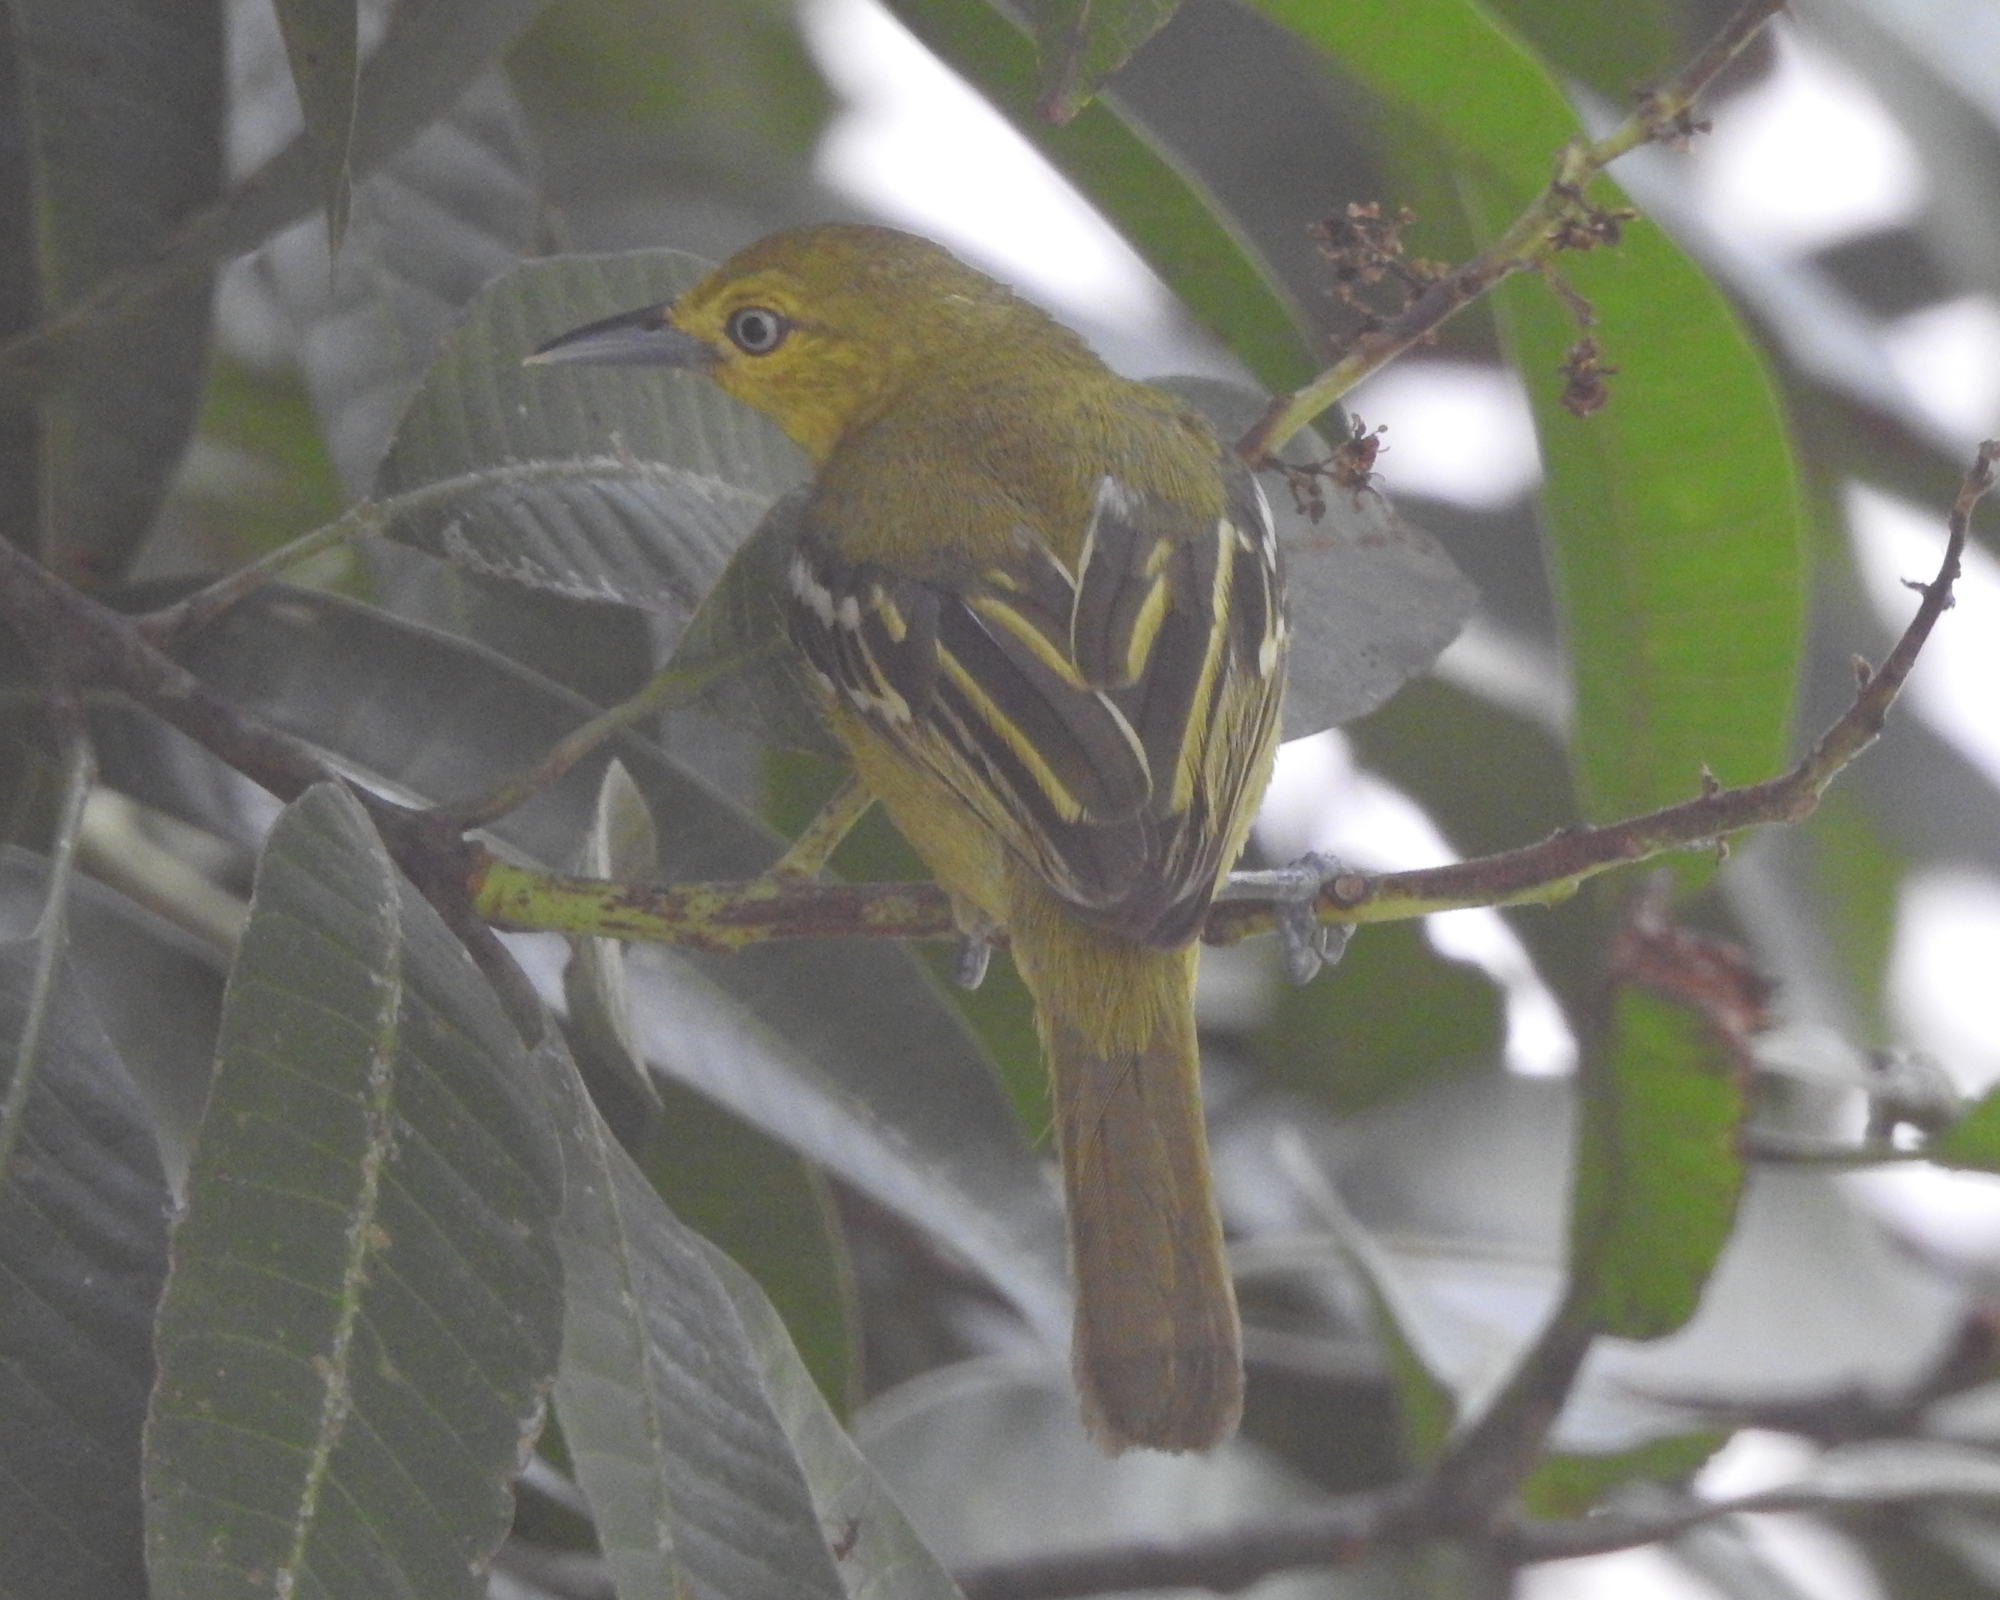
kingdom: Animalia
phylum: Chordata
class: Aves
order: Passeriformes
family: Aegithinidae
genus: Aegithina
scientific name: Aegithina tiphia
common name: Common iora
